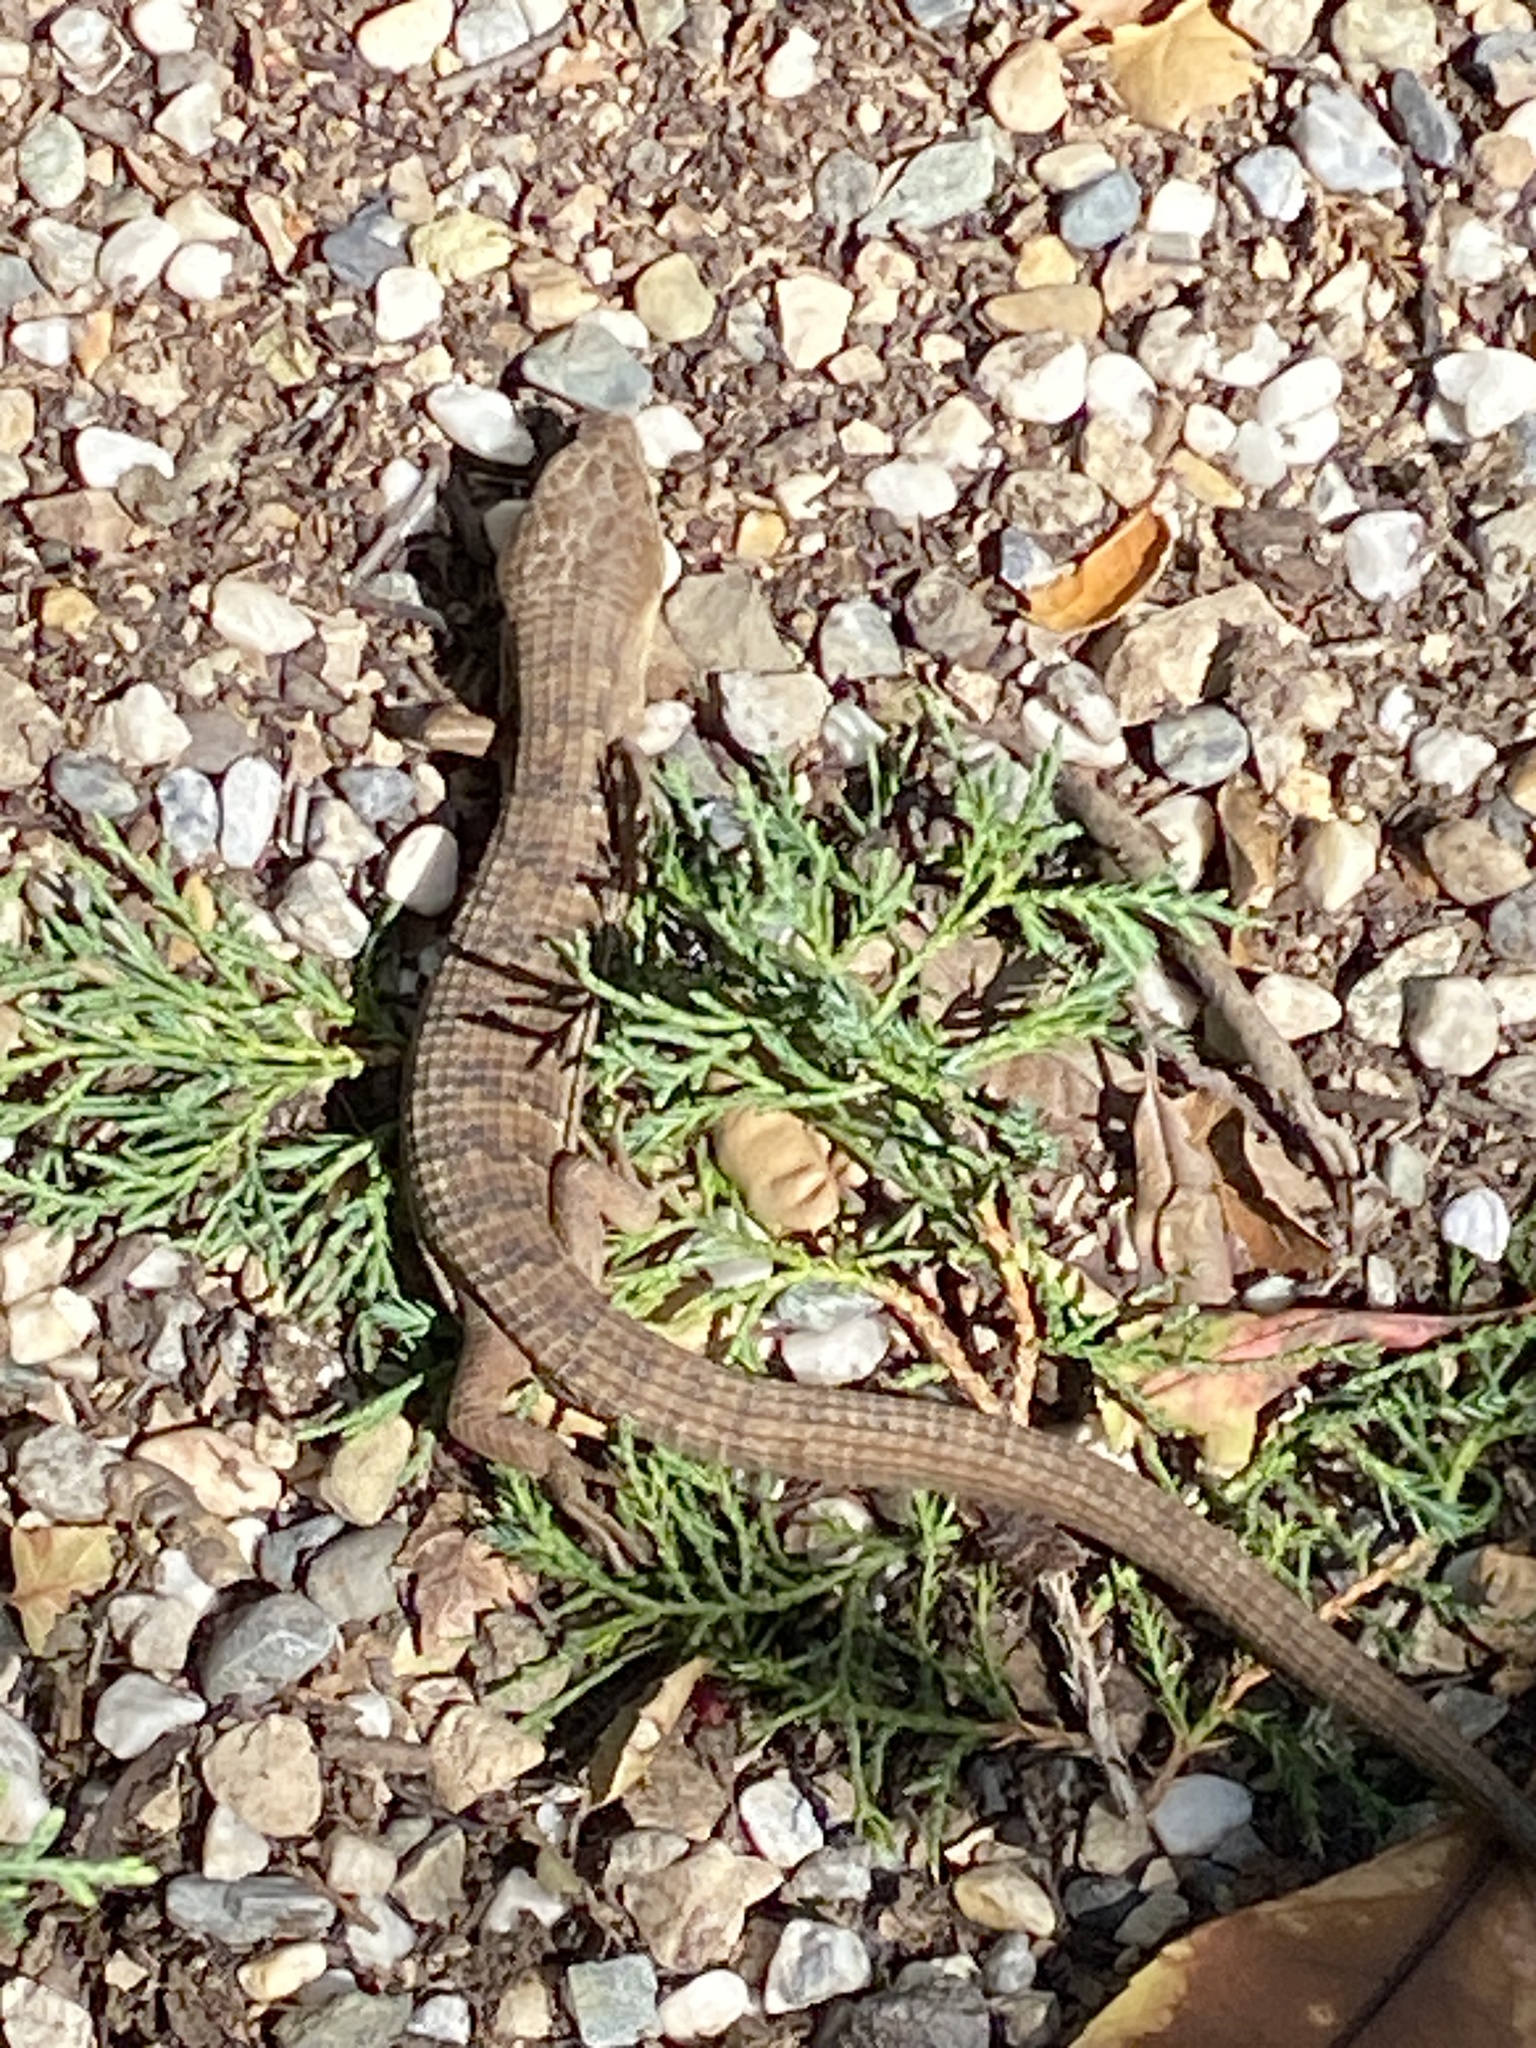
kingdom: Animalia
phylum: Chordata
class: Squamata
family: Anguidae
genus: Elgaria
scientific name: Elgaria multicarinata
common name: Southern alligator lizard
